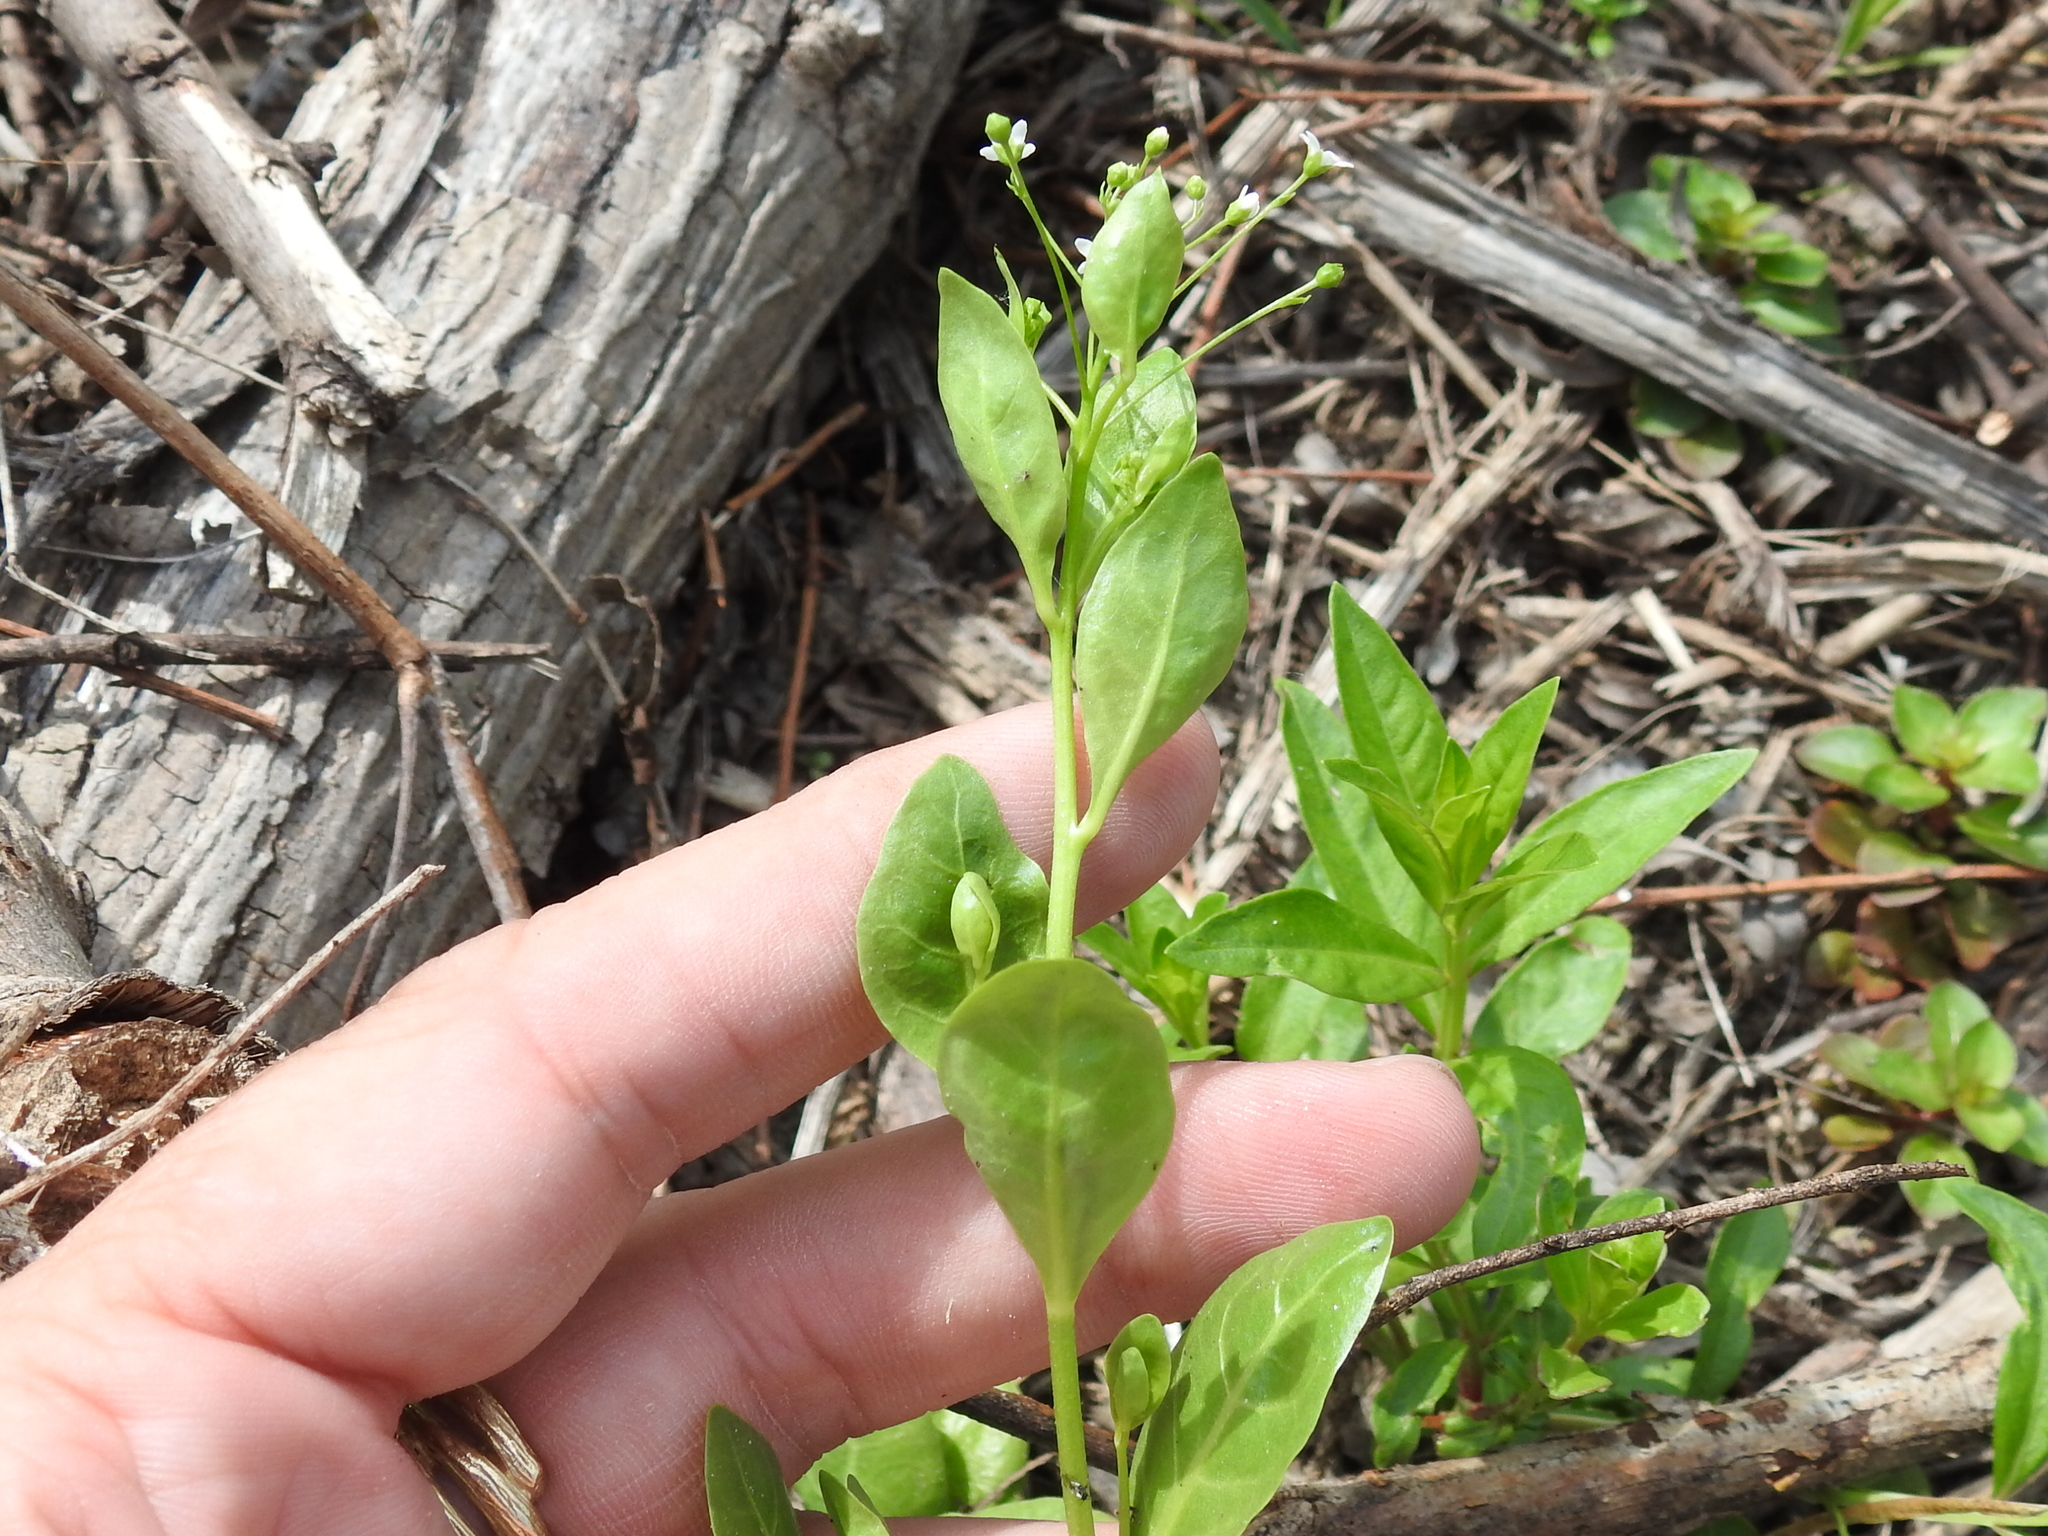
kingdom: Plantae
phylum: Tracheophyta
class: Magnoliopsida
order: Ericales
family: Primulaceae
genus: Samolus
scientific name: Samolus parviflorus
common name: False water pimpernel
